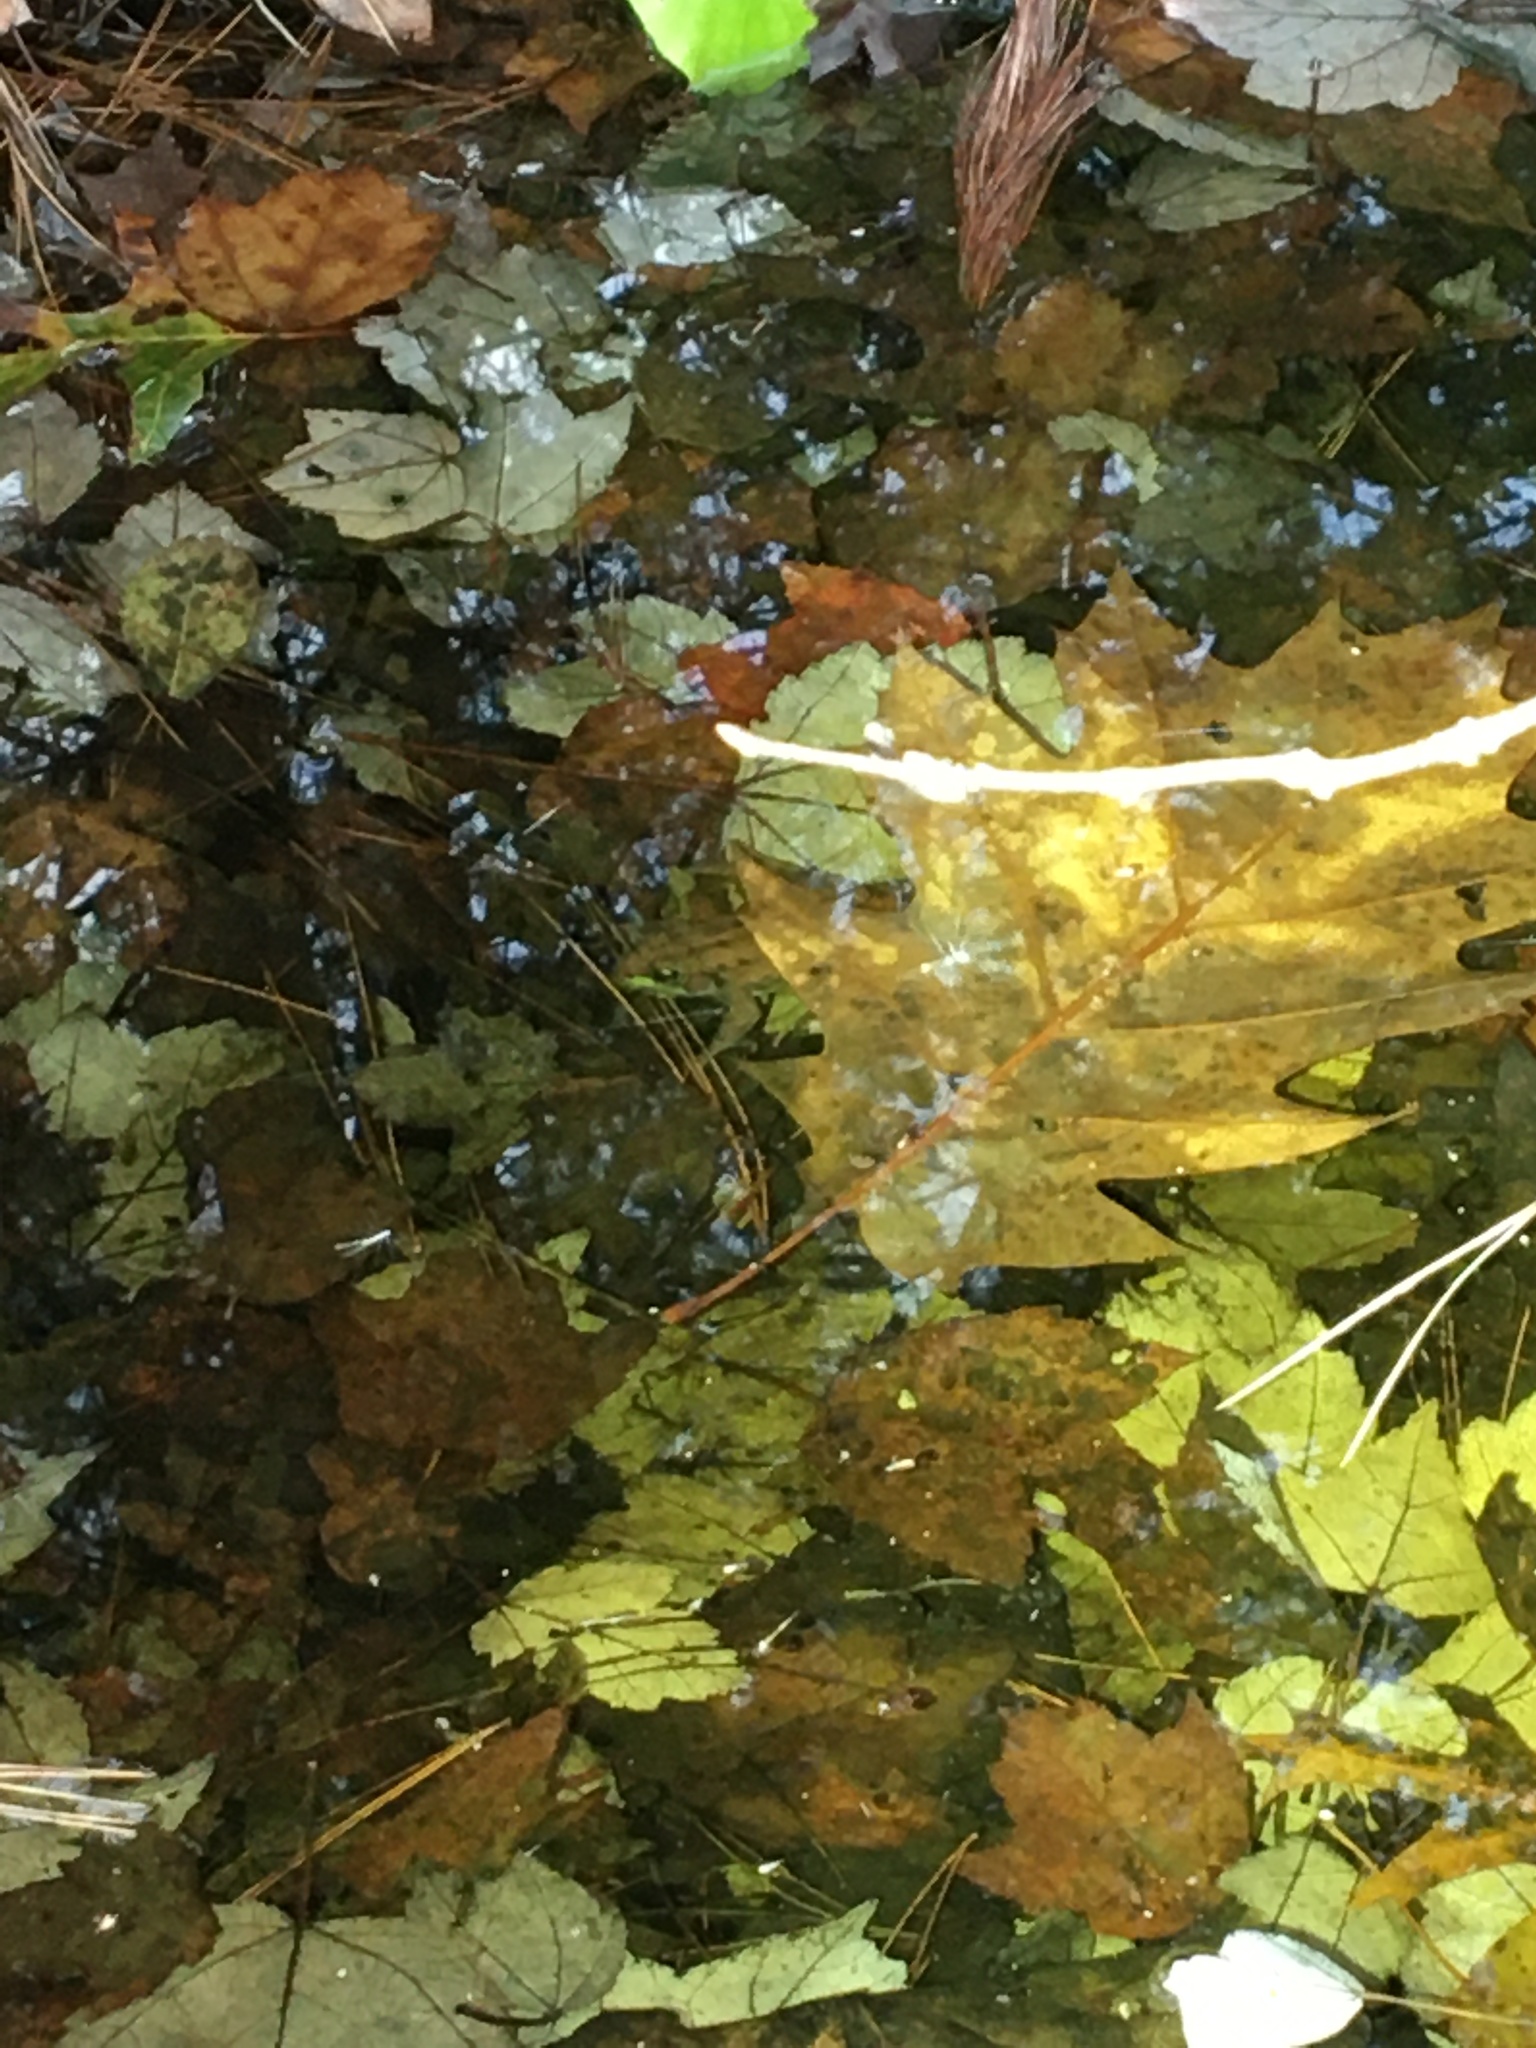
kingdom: Animalia
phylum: Chordata
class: Amphibia
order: Anura
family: Ranidae
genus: Lithobates
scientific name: Lithobates clamitans
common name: Green frog
